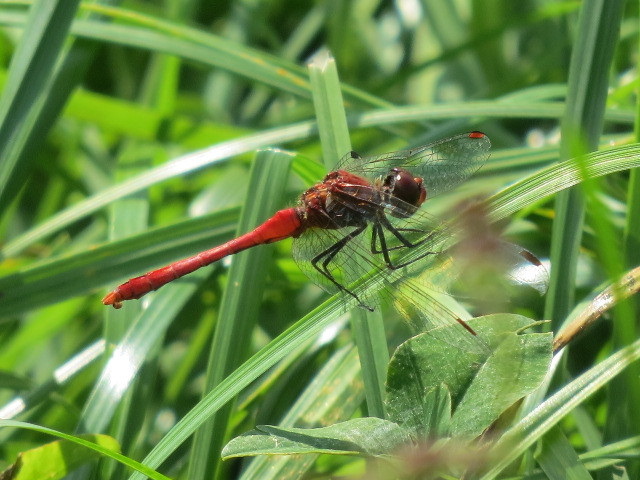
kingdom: Animalia
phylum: Arthropoda
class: Insecta
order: Odonata
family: Libellulidae
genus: Sympetrum
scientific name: Sympetrum sanguineum
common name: Ruddy darter
